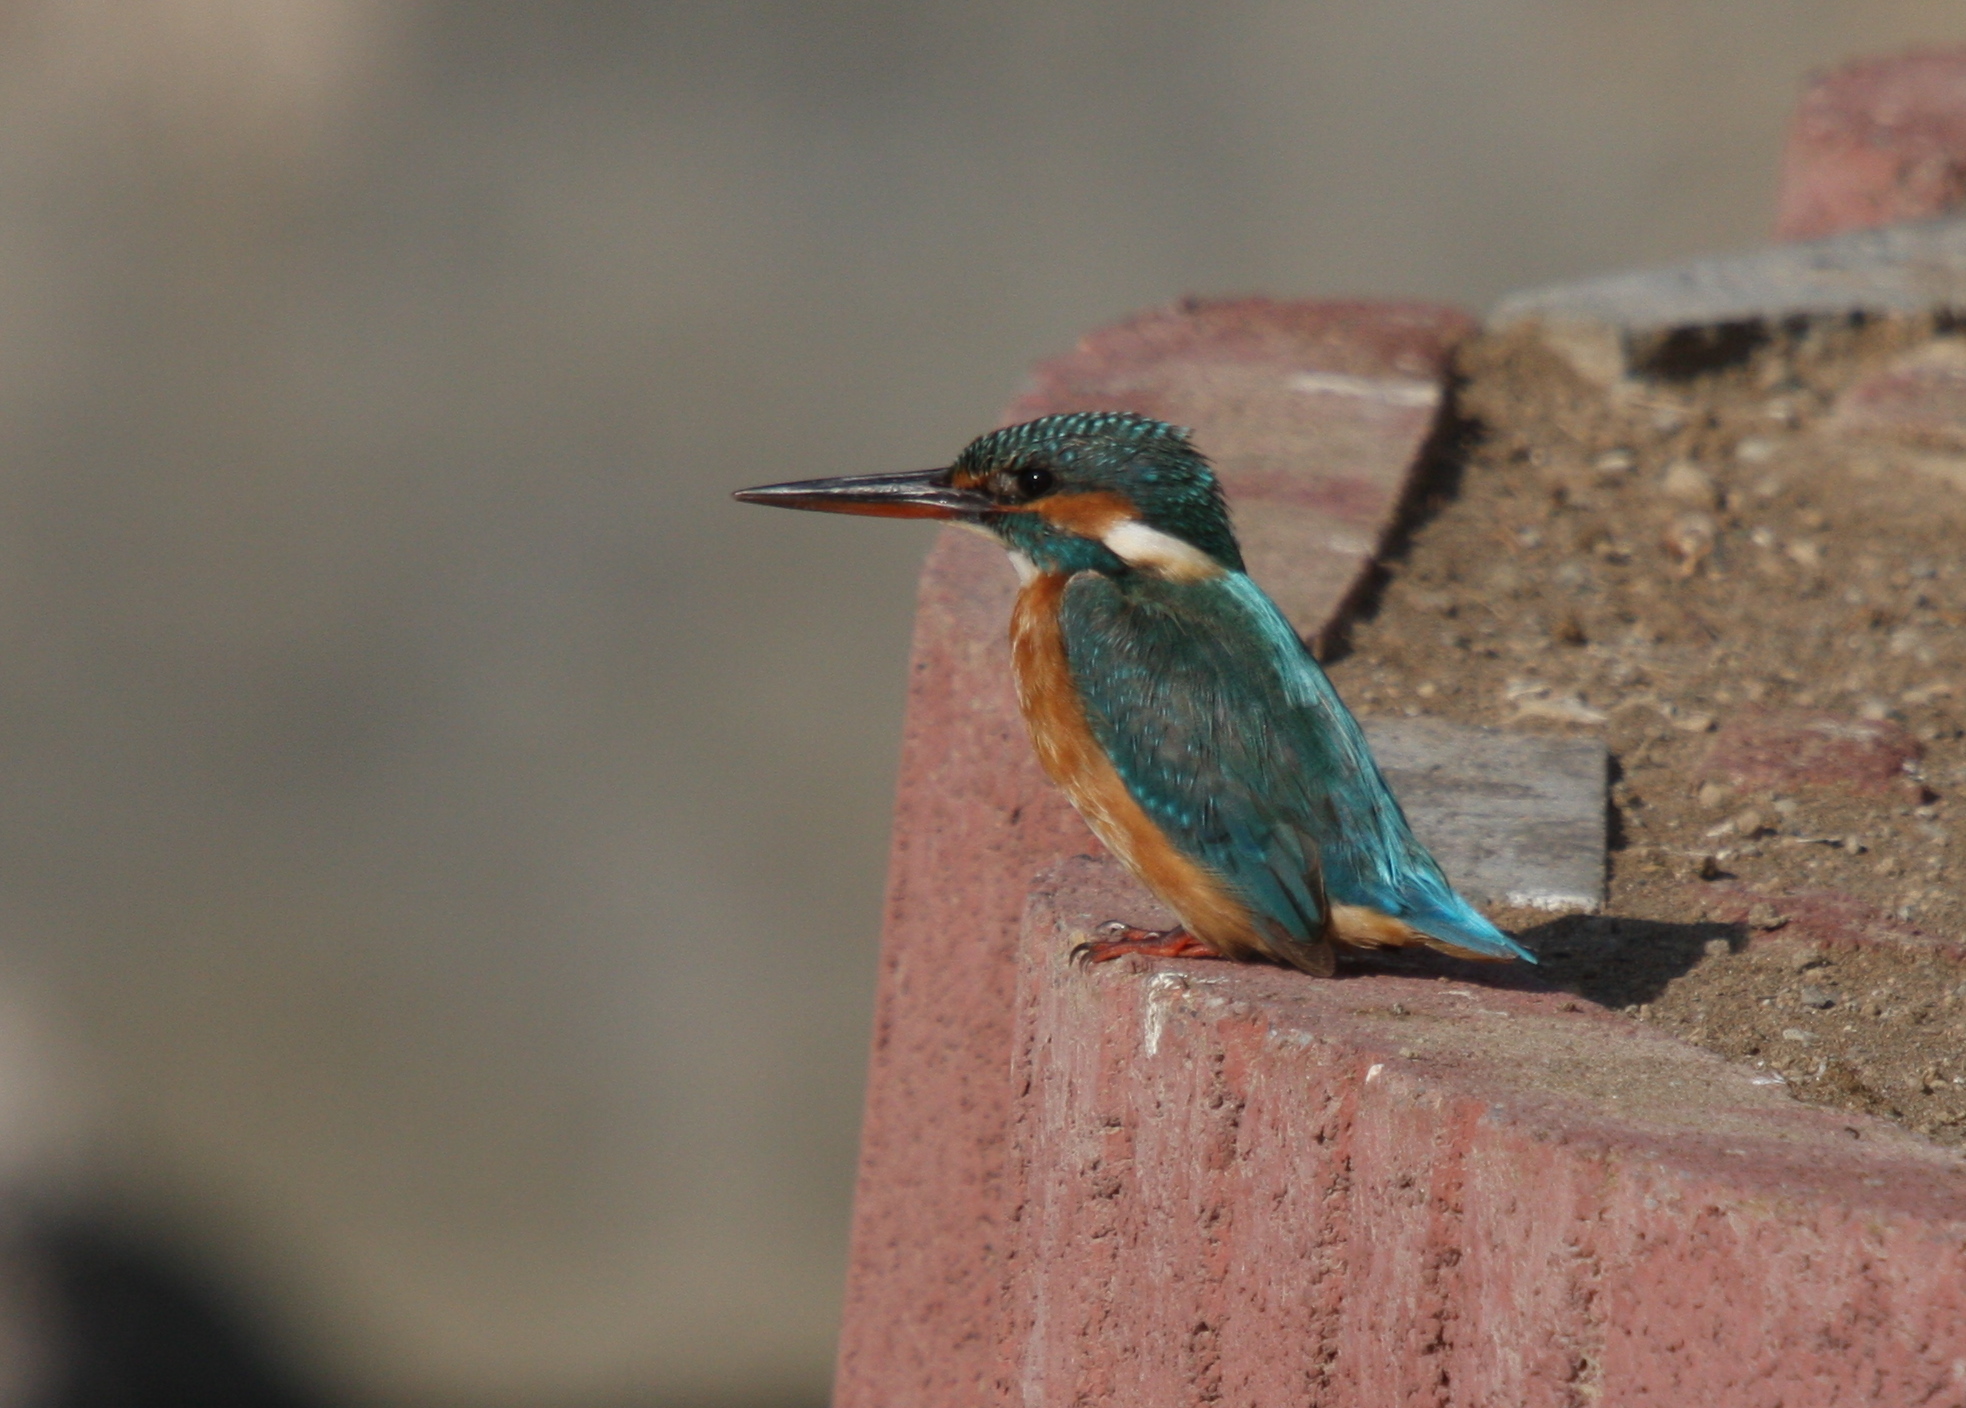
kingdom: Animalia
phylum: Chordata
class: Aves
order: Coraciiformes
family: Alcedinidae
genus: Alcedo
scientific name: Alcedo atthis
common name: Common kingfisher
